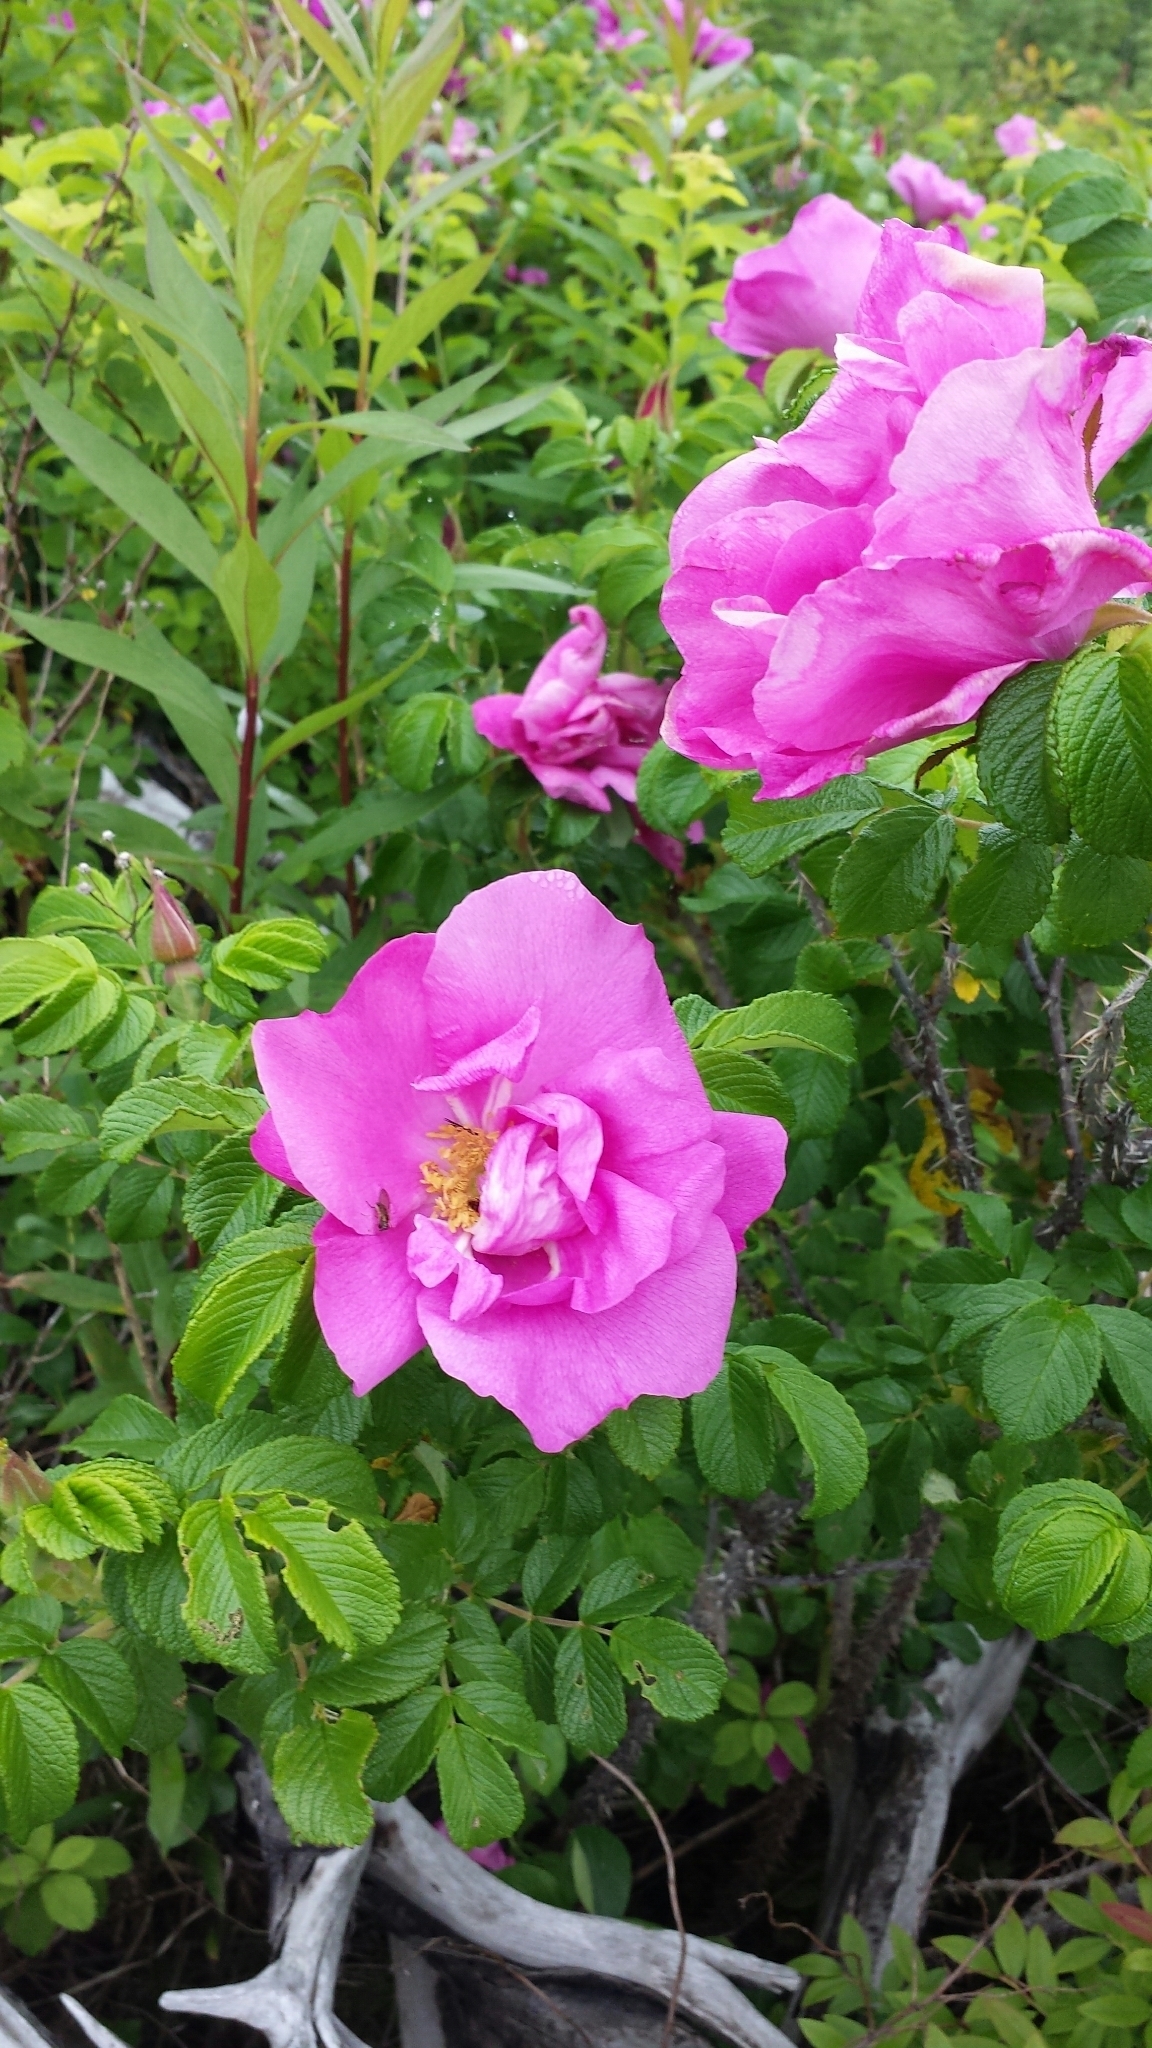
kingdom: Plantae
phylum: Tracheophyta
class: Magnoliopsida
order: Rosales
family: Rosaceae
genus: Rosa
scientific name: Rosa rugosa
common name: Japanese rose
